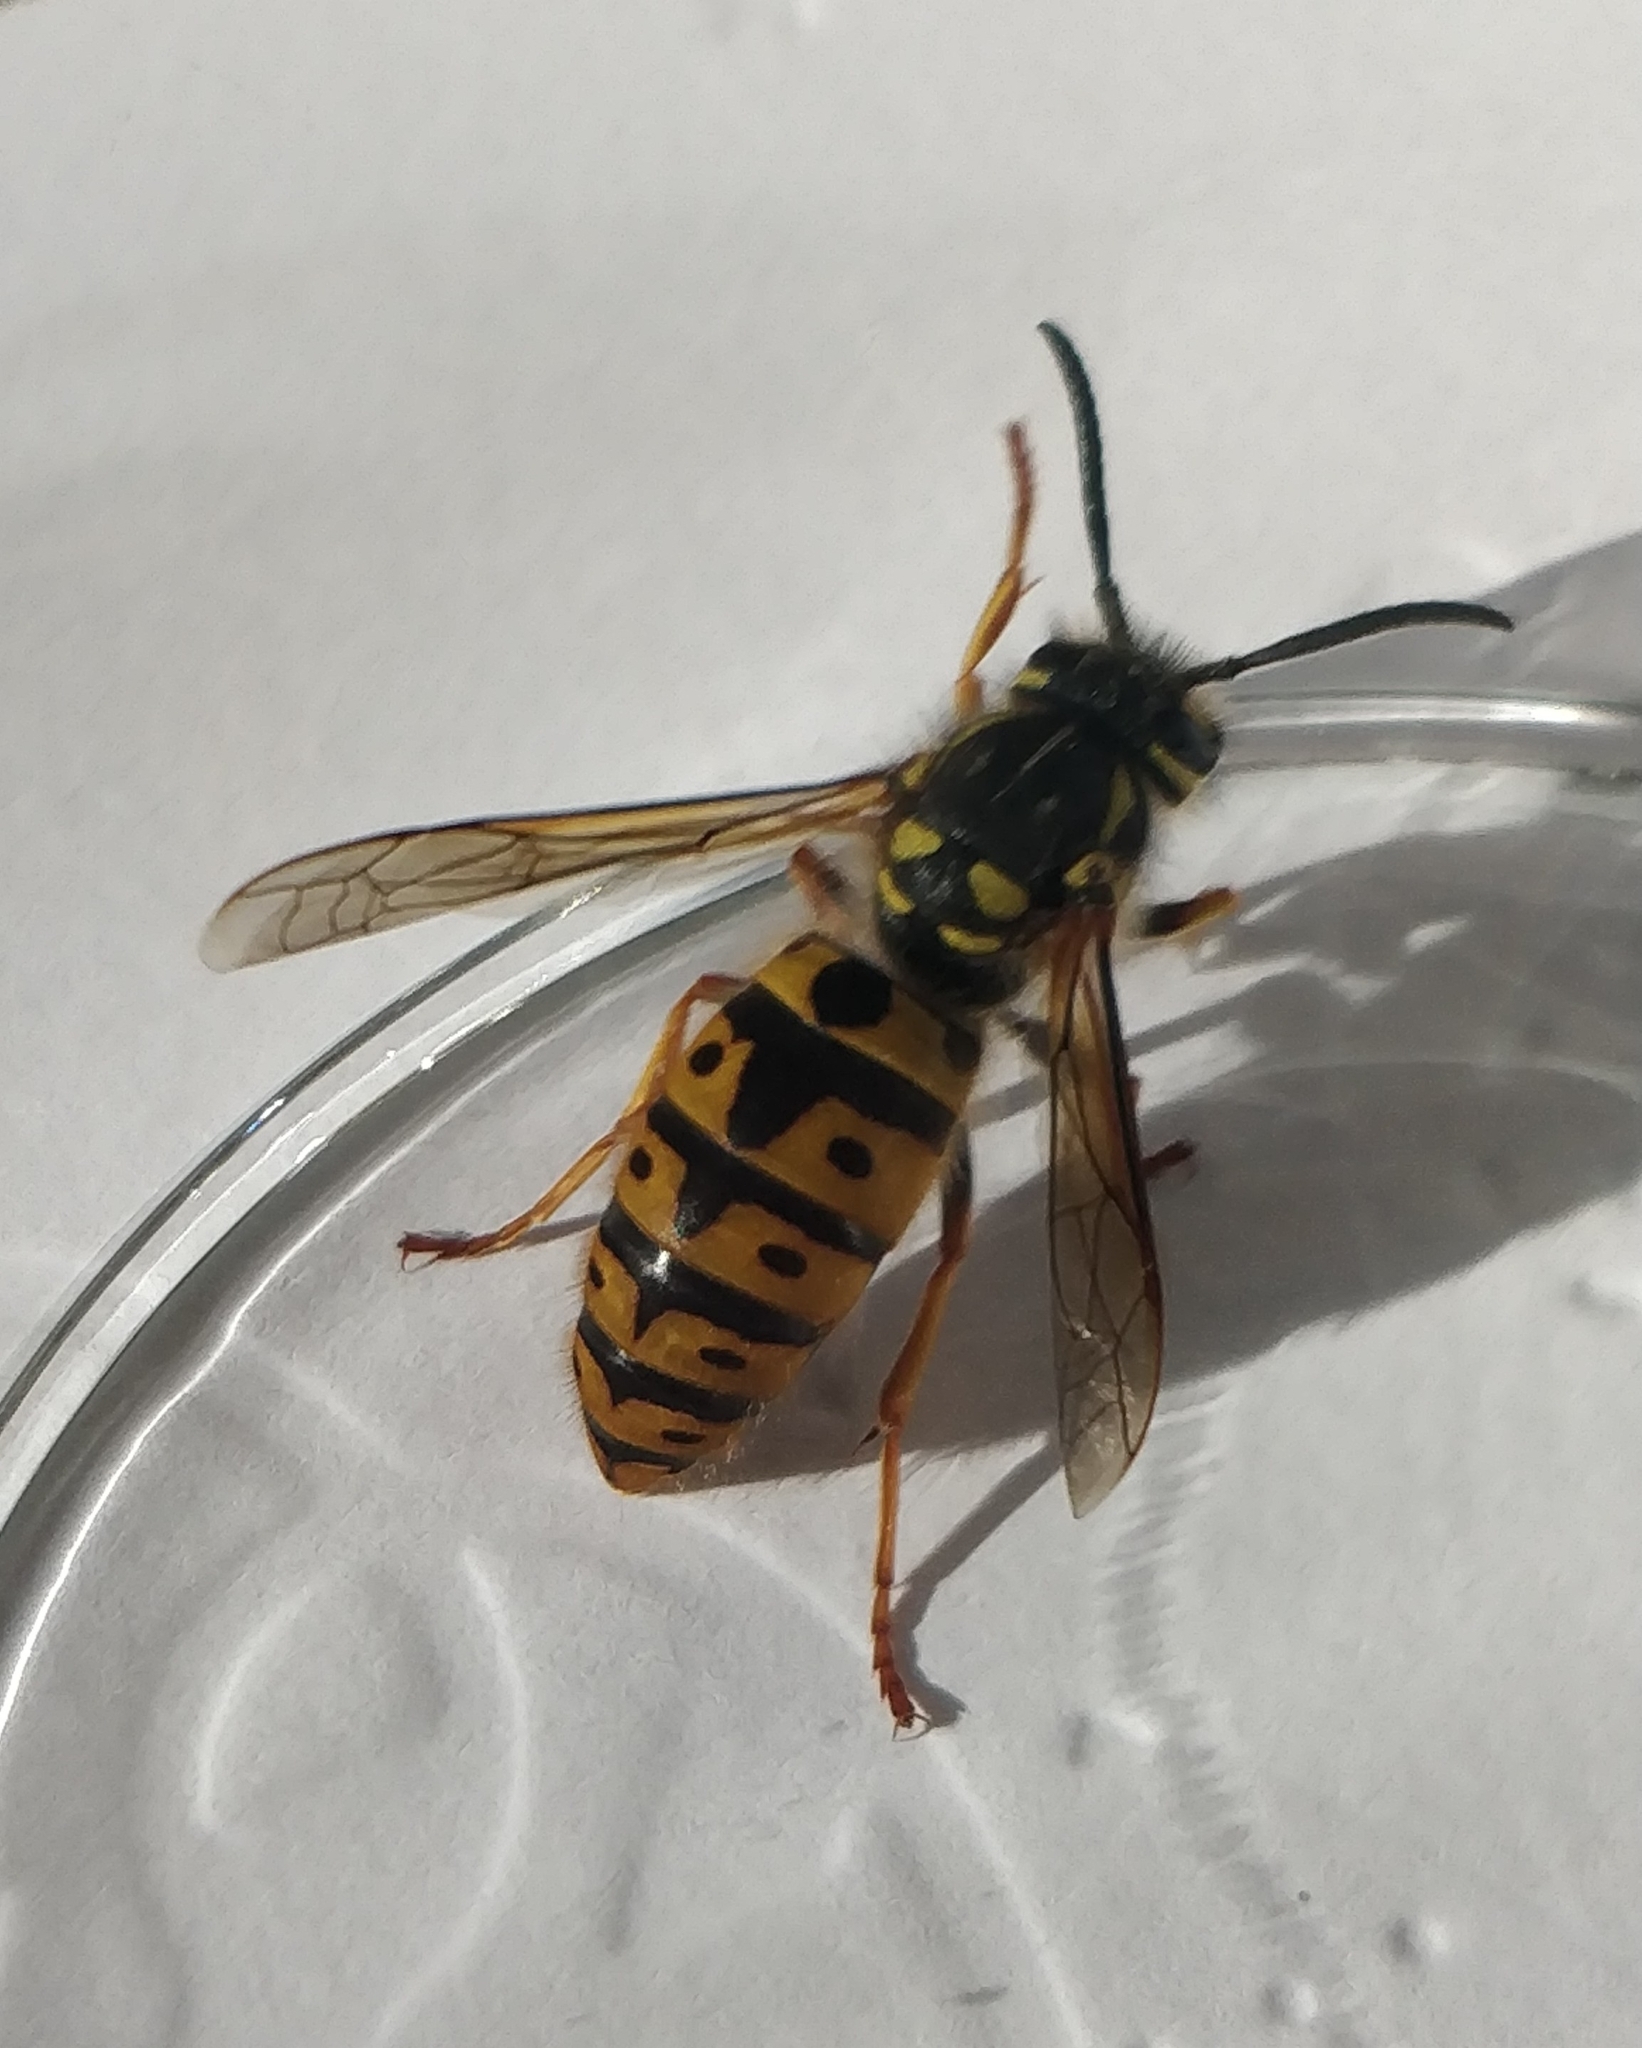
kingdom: Animalia
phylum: Arthropoda
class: Insecta
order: Hymenoptera
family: Vespidae
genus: Vespula
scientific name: Vespula germanica
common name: German wasp
